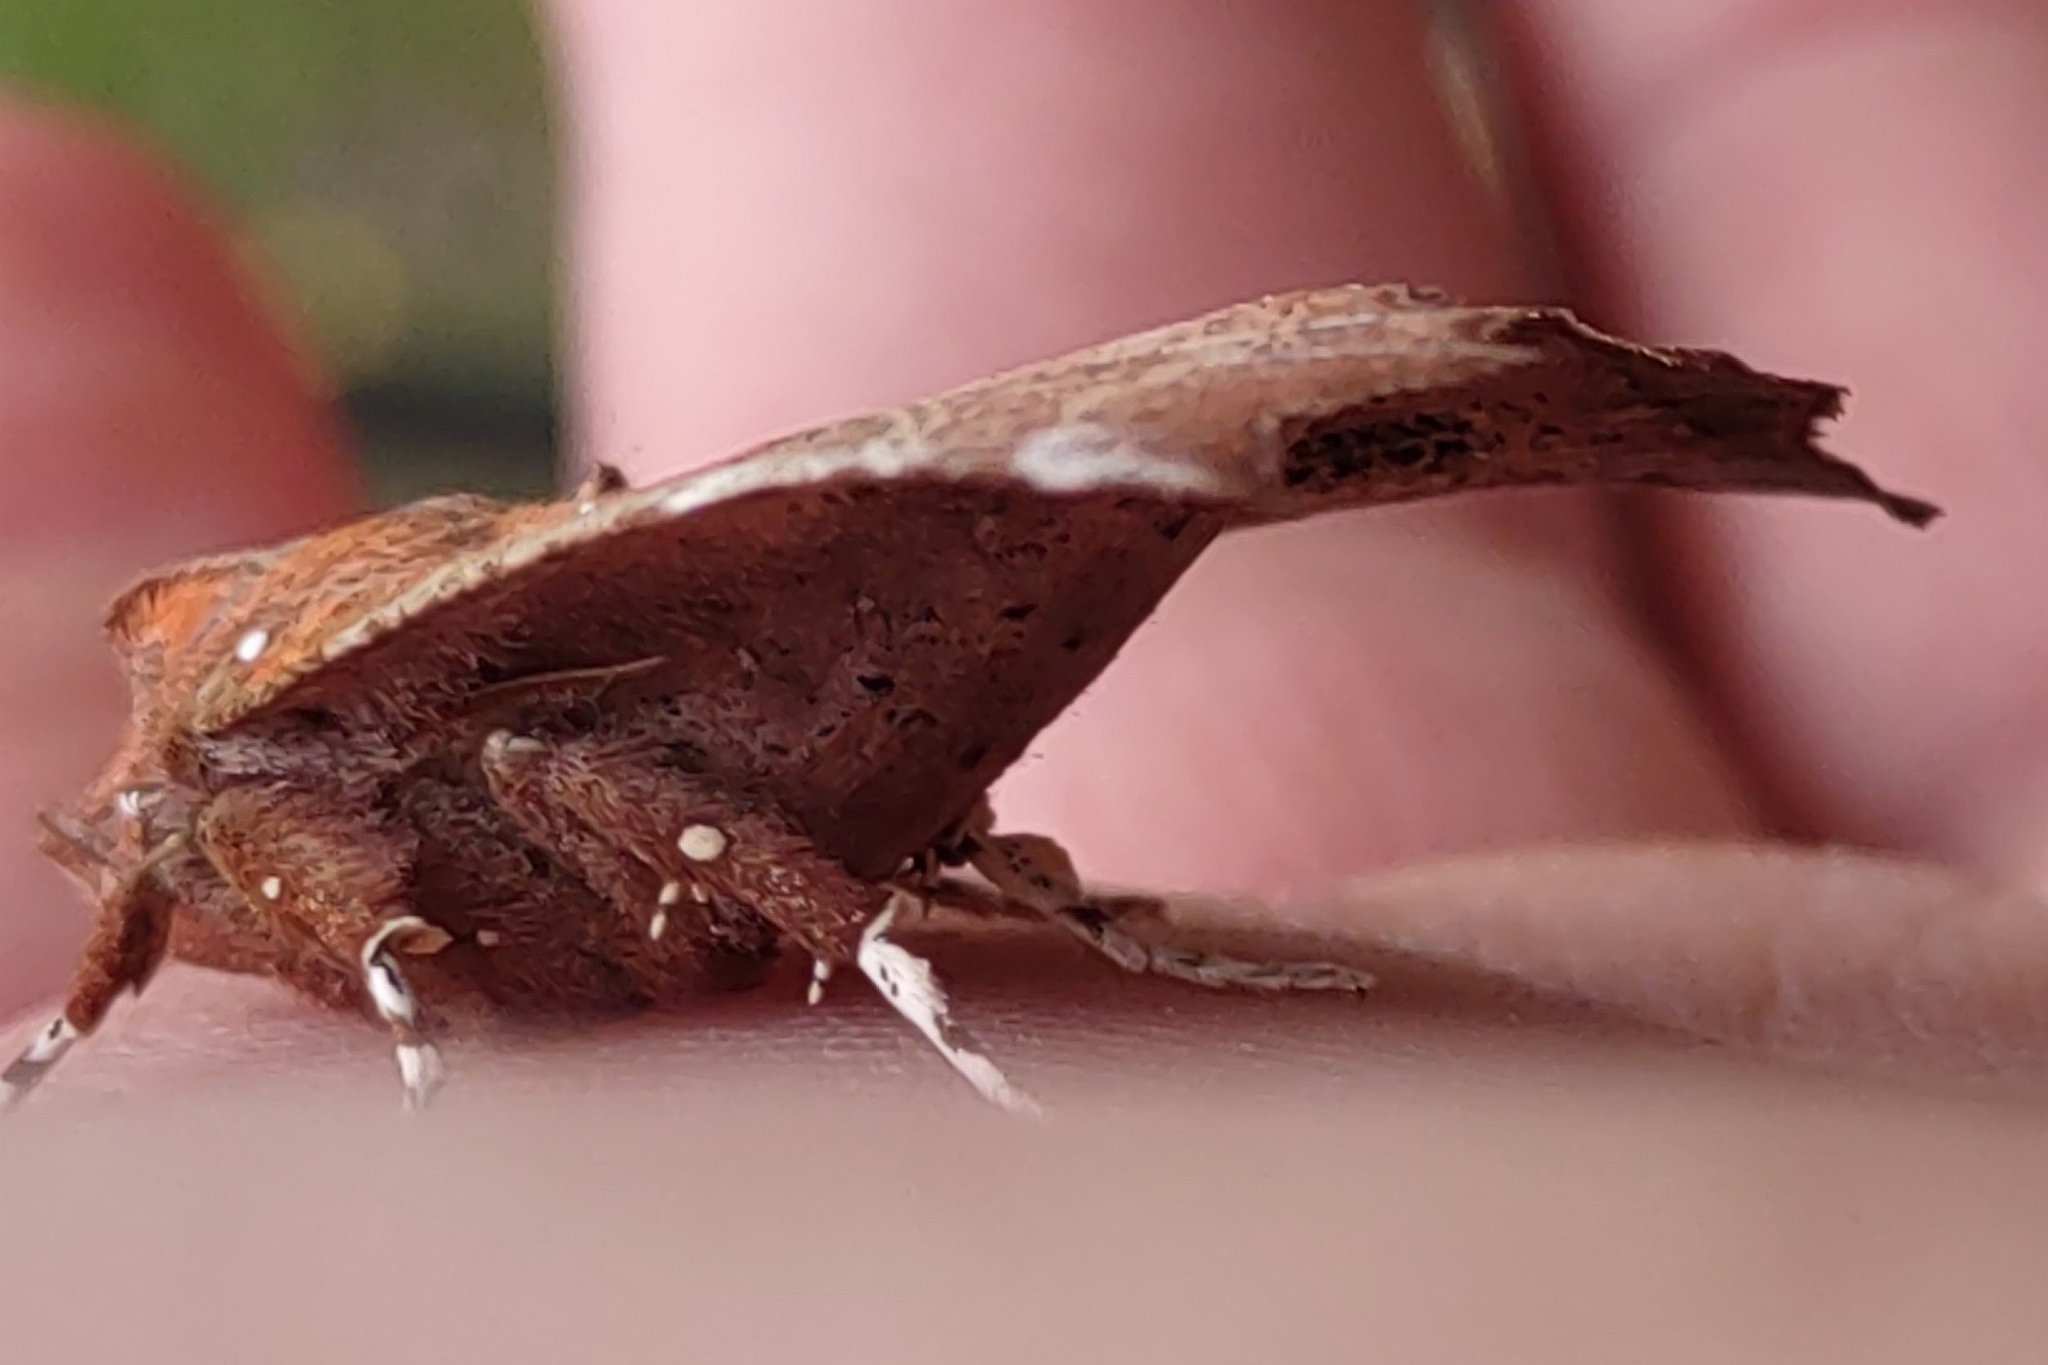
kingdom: Animalia
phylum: Arthropoda
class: Insecta
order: Lepidoptera
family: Erebidae
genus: Scoliopteryx
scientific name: Scoliopteryx libatrix
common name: Herald
